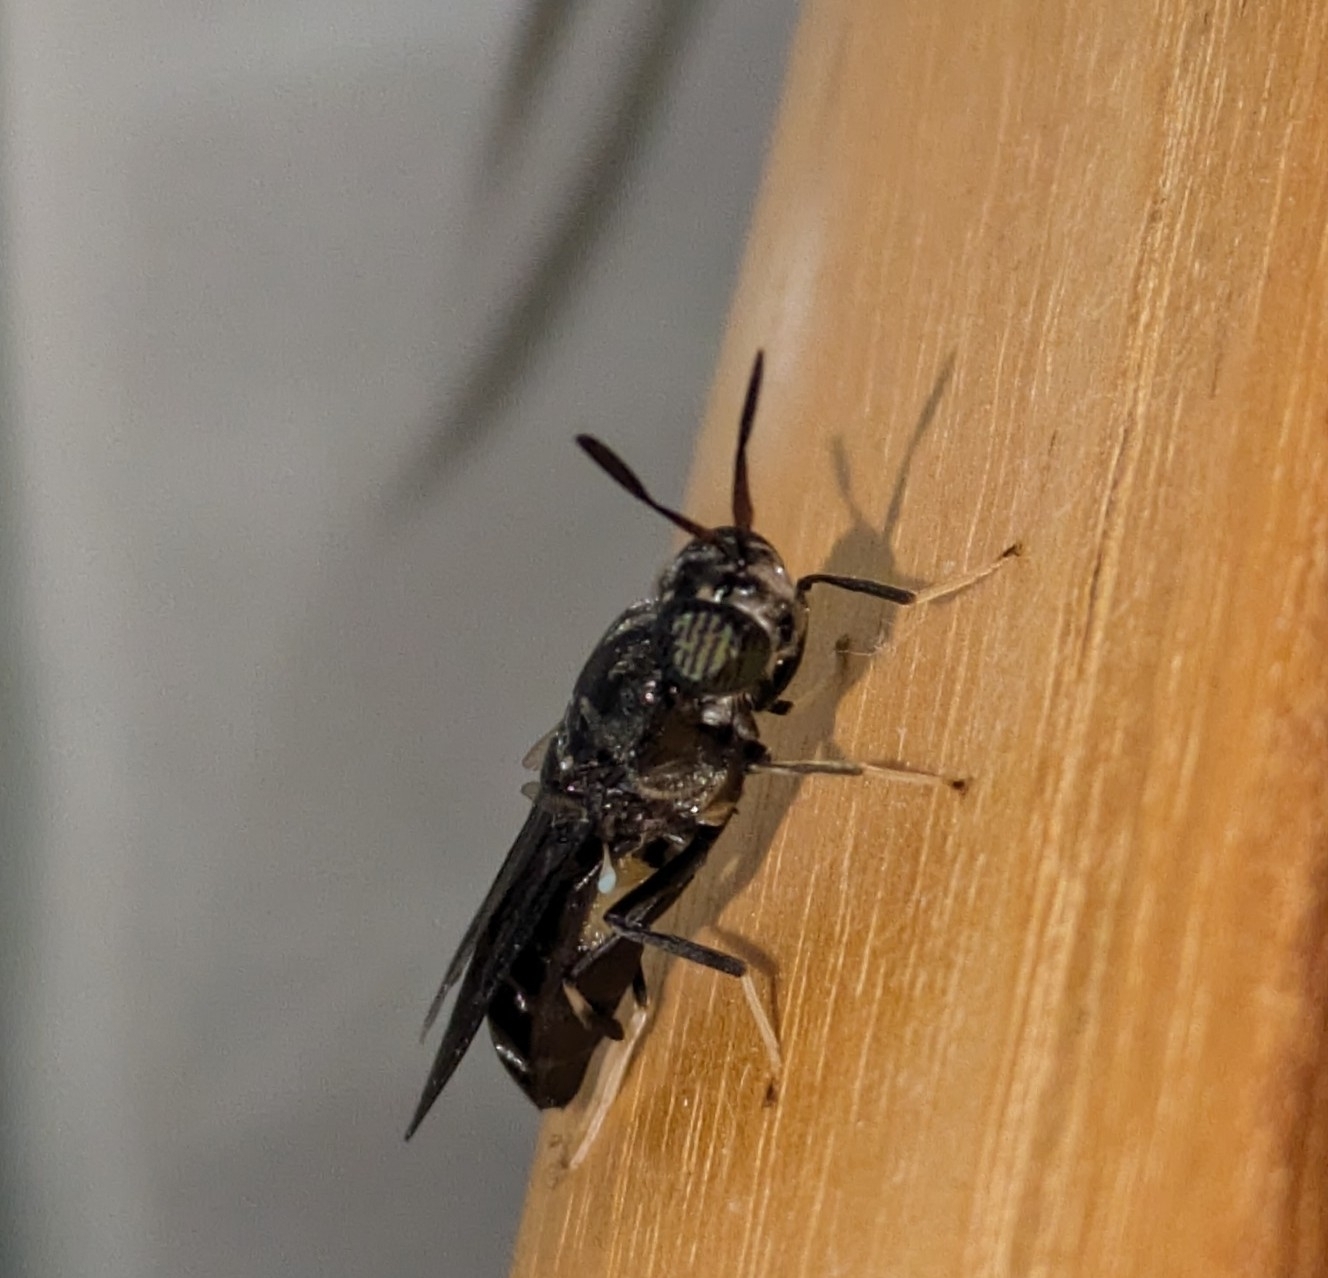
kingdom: Animalia
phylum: Arthropoda
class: Insecta
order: Diptera
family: Stratiomyidae
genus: Hermetia
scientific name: Hermetia illucens
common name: Black soldier fly
